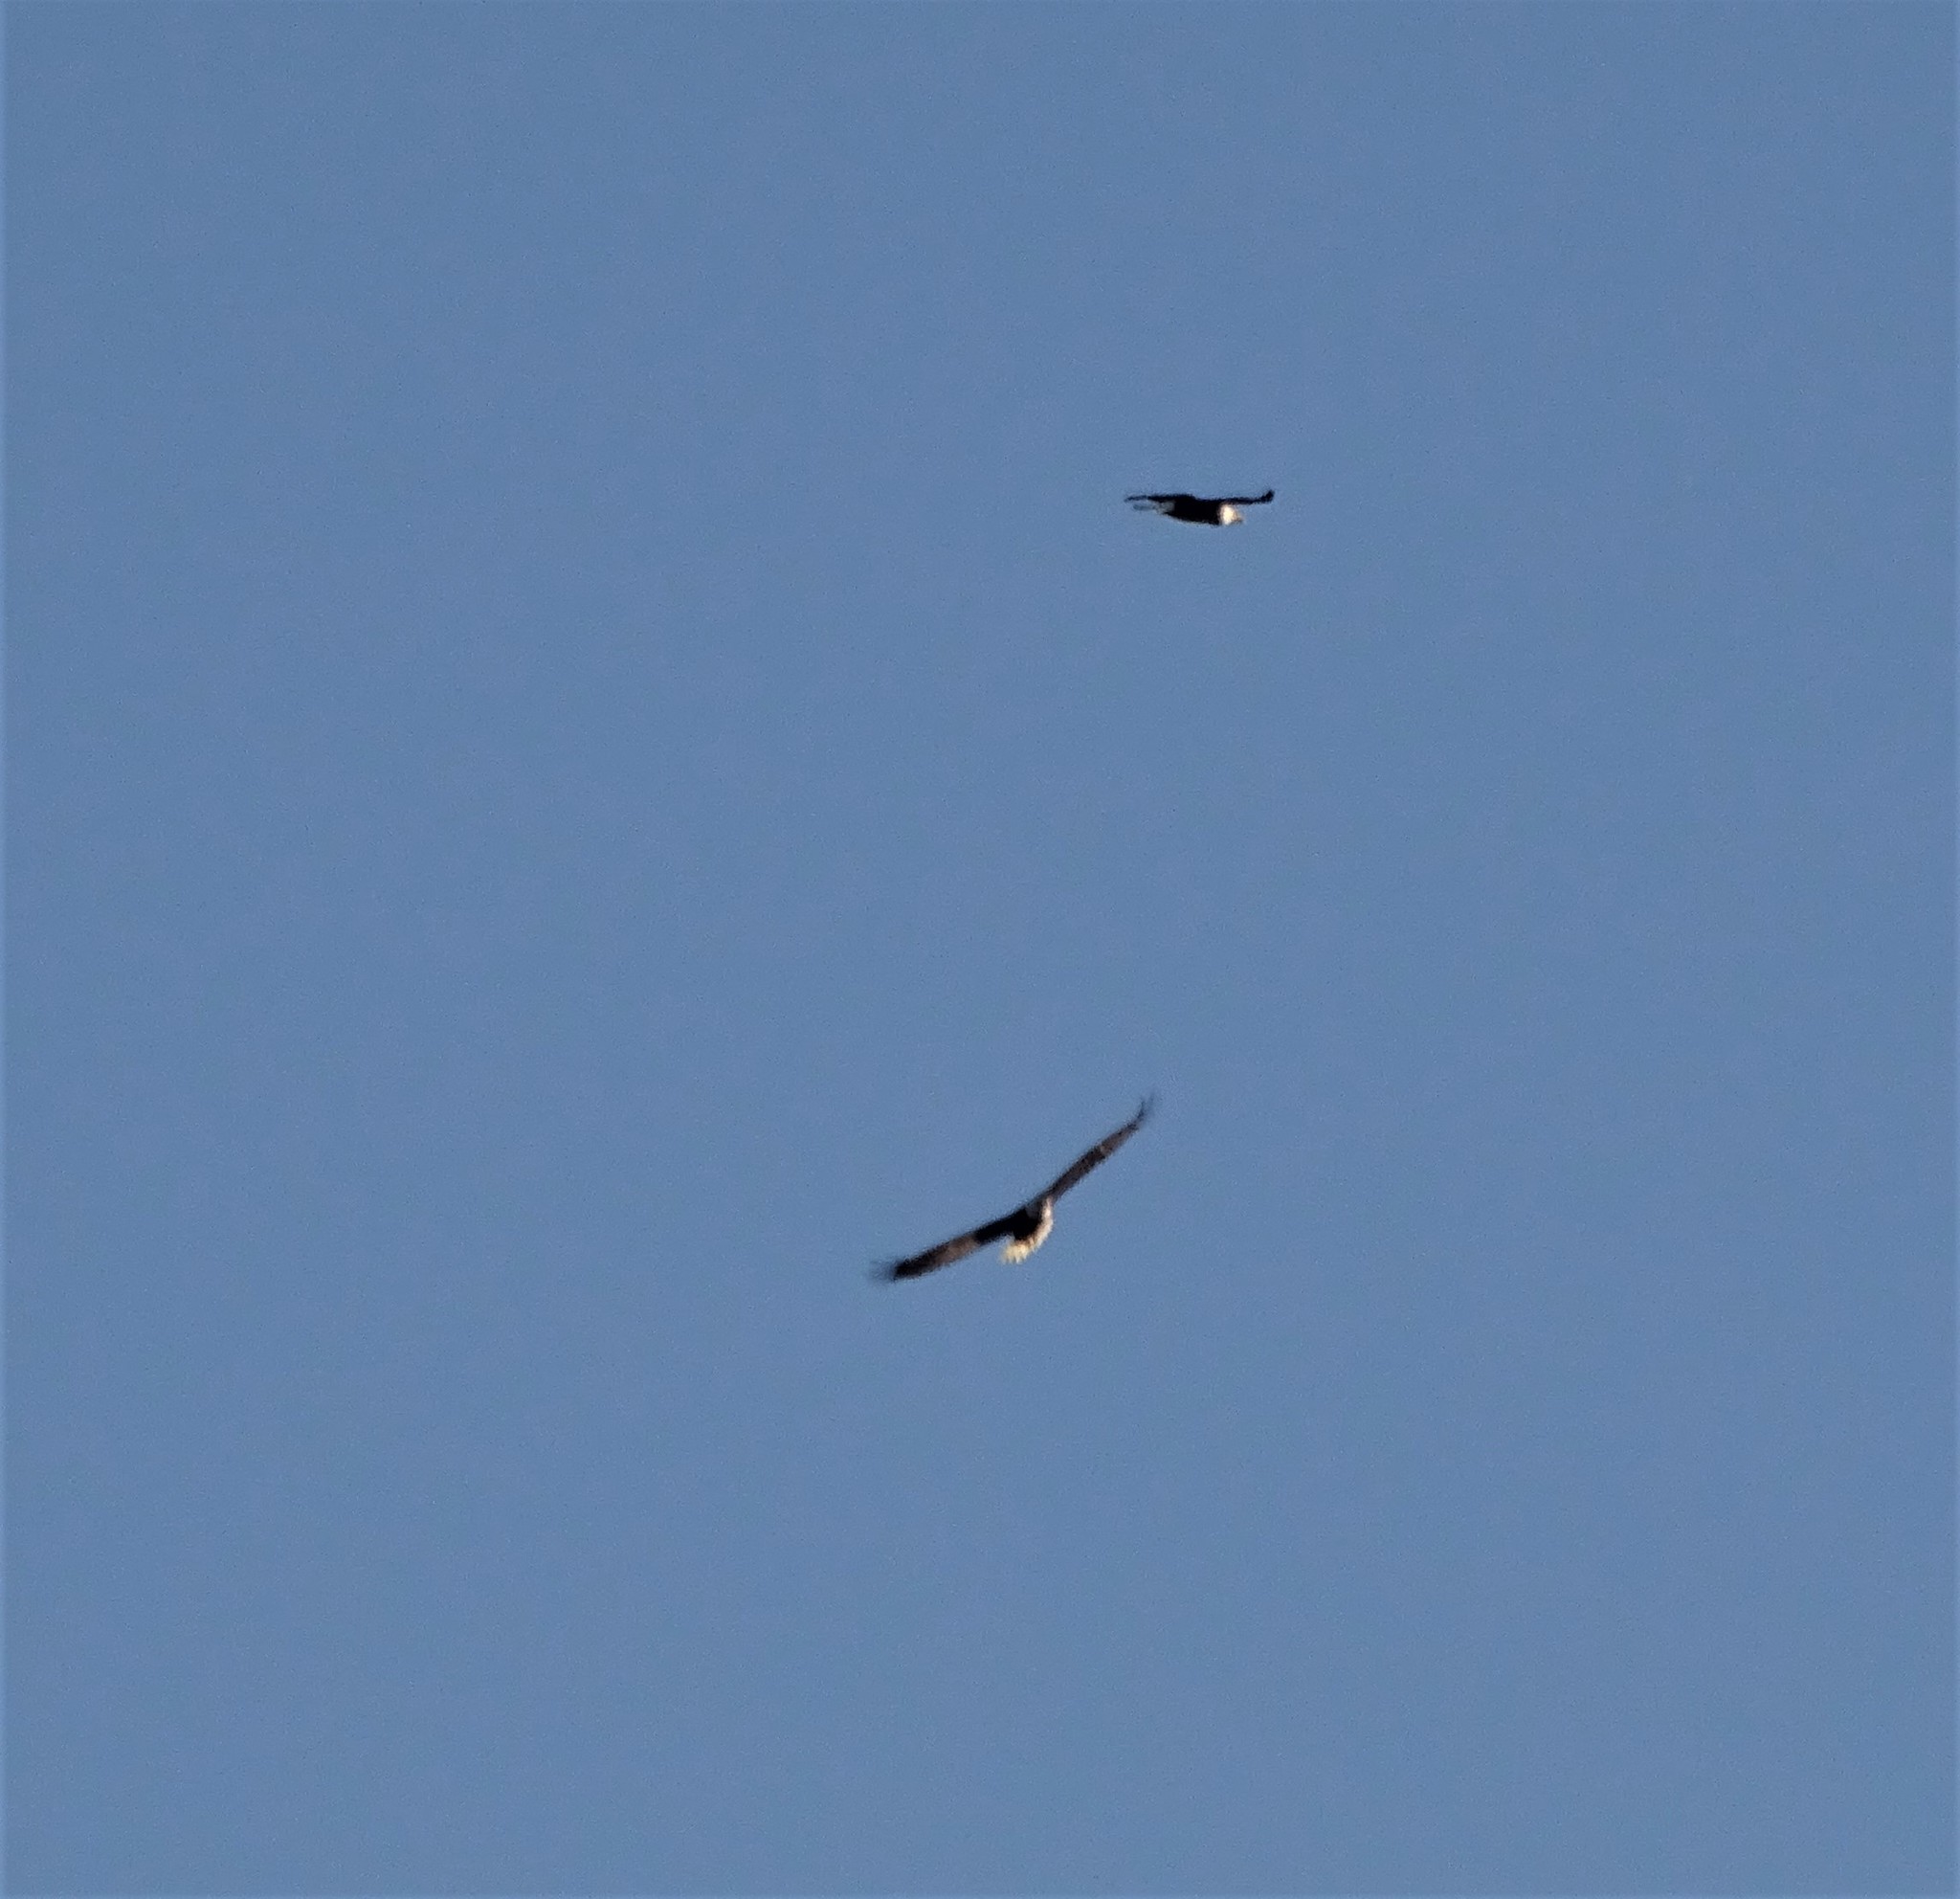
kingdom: Animalia
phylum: Chordata
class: Aves
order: Accipitriformes
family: Accipitridae
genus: Haliaeetus
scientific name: Haliaeetus leucocephalus
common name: Bald eagle
